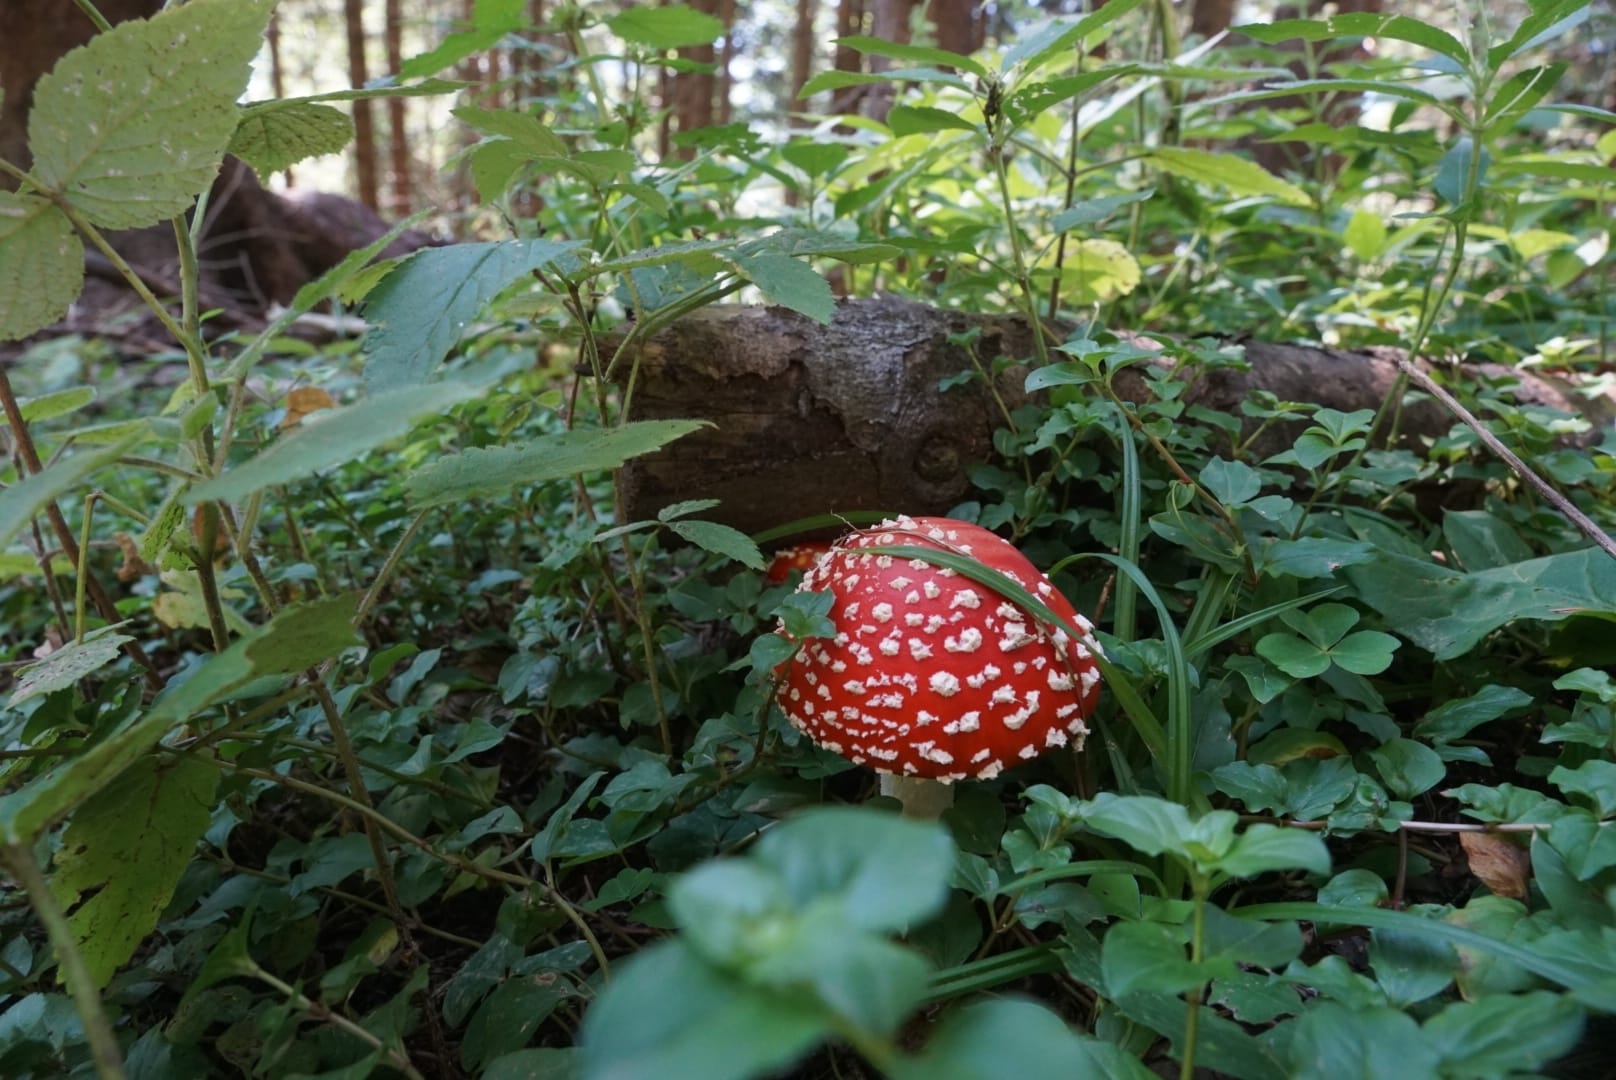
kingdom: Fungi
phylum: Basidiomycota
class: Agaricomycetes
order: Agaricales
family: Amanitaceae
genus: Amanita
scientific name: Amanita muscaria
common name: Fly agaric
